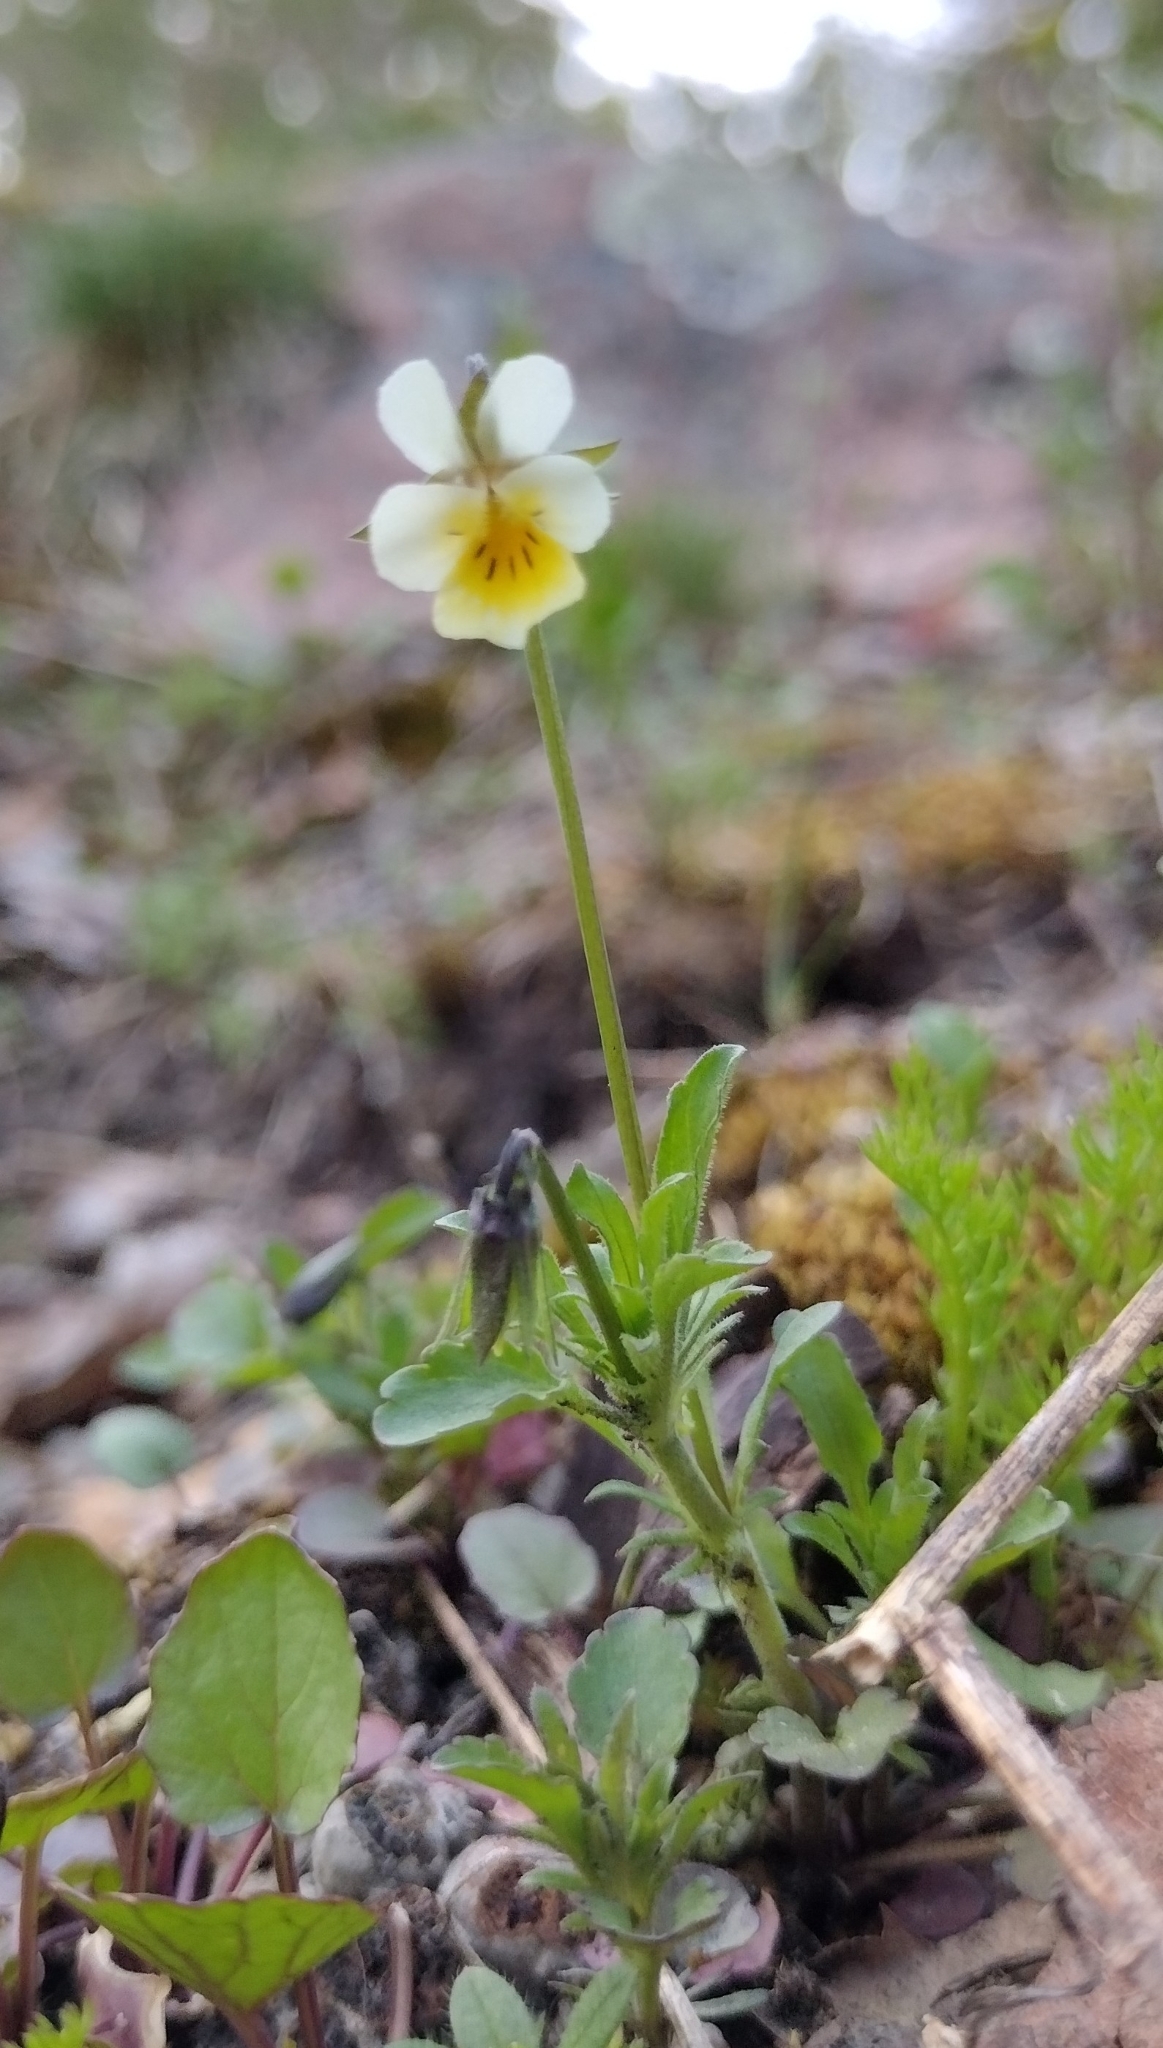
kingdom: Plantae
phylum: Tracheophyta
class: Magnoliopsida
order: Malpighiales
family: Violaceae
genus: Viola
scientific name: Viola arvensis
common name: Field pansy
